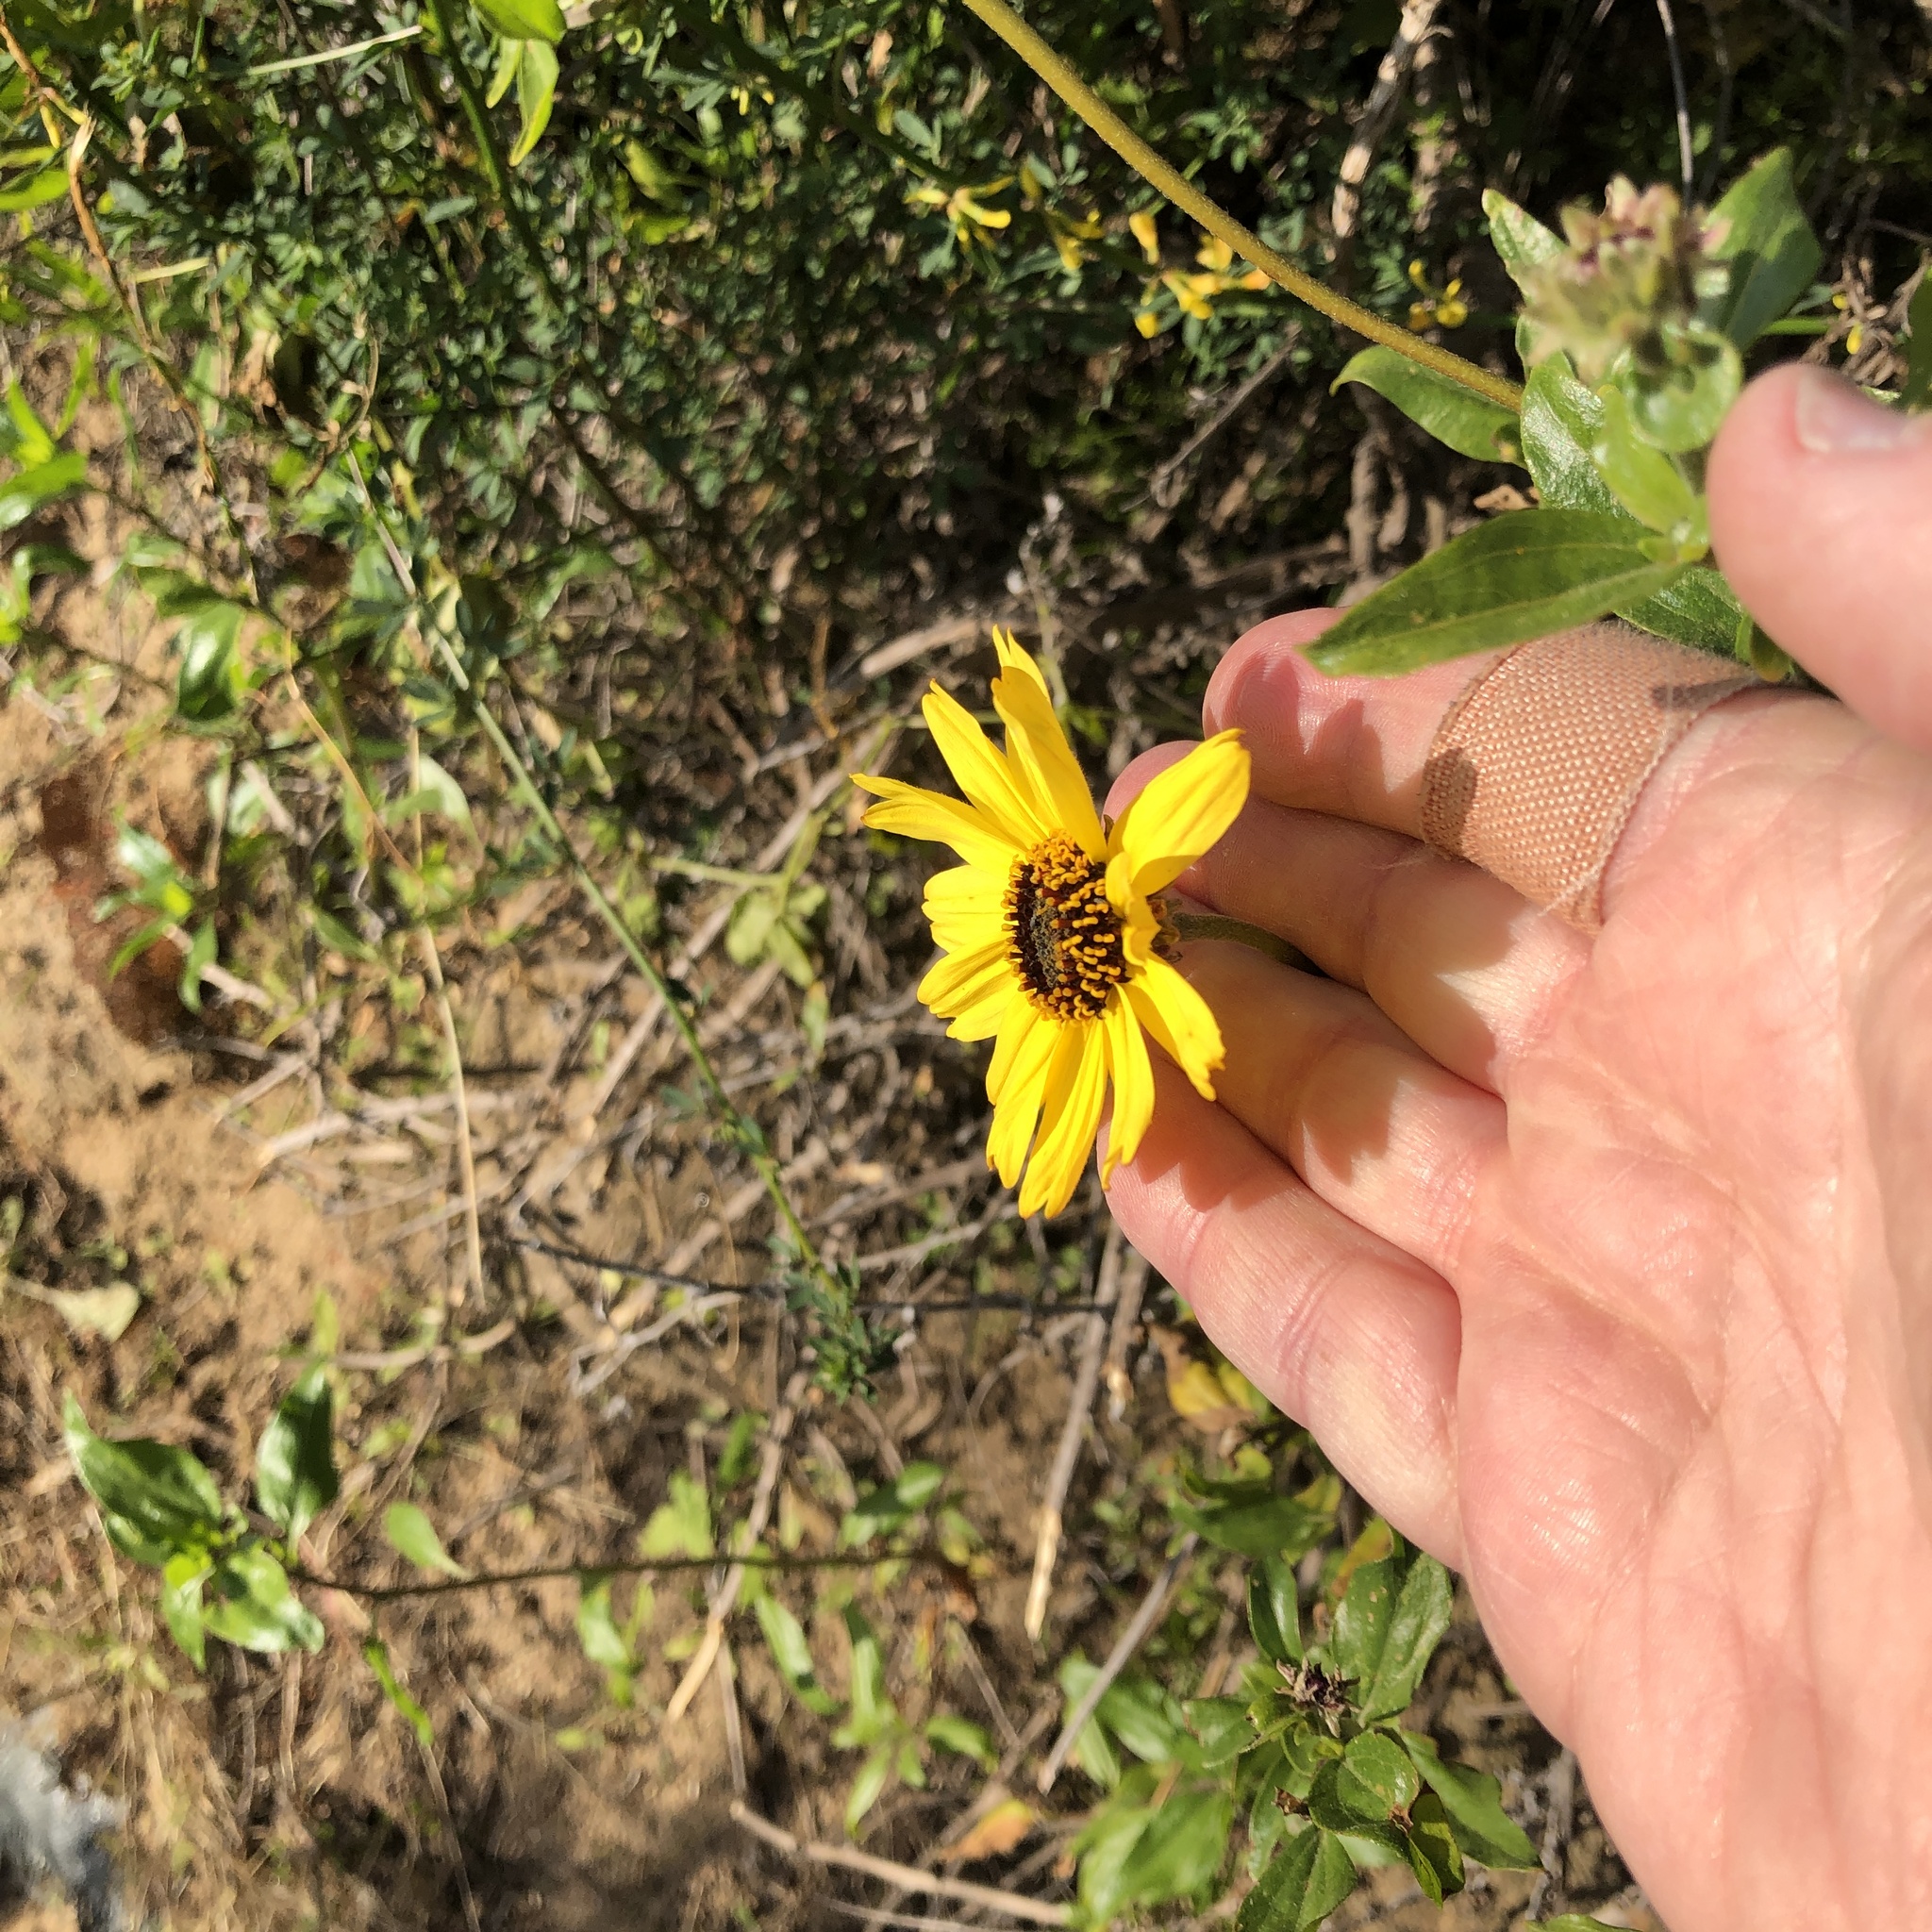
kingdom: Plantae
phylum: Tracheophyta
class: Magnoliopsida
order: Asterales
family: Asteraceae
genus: Encelia
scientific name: Encelia californica
